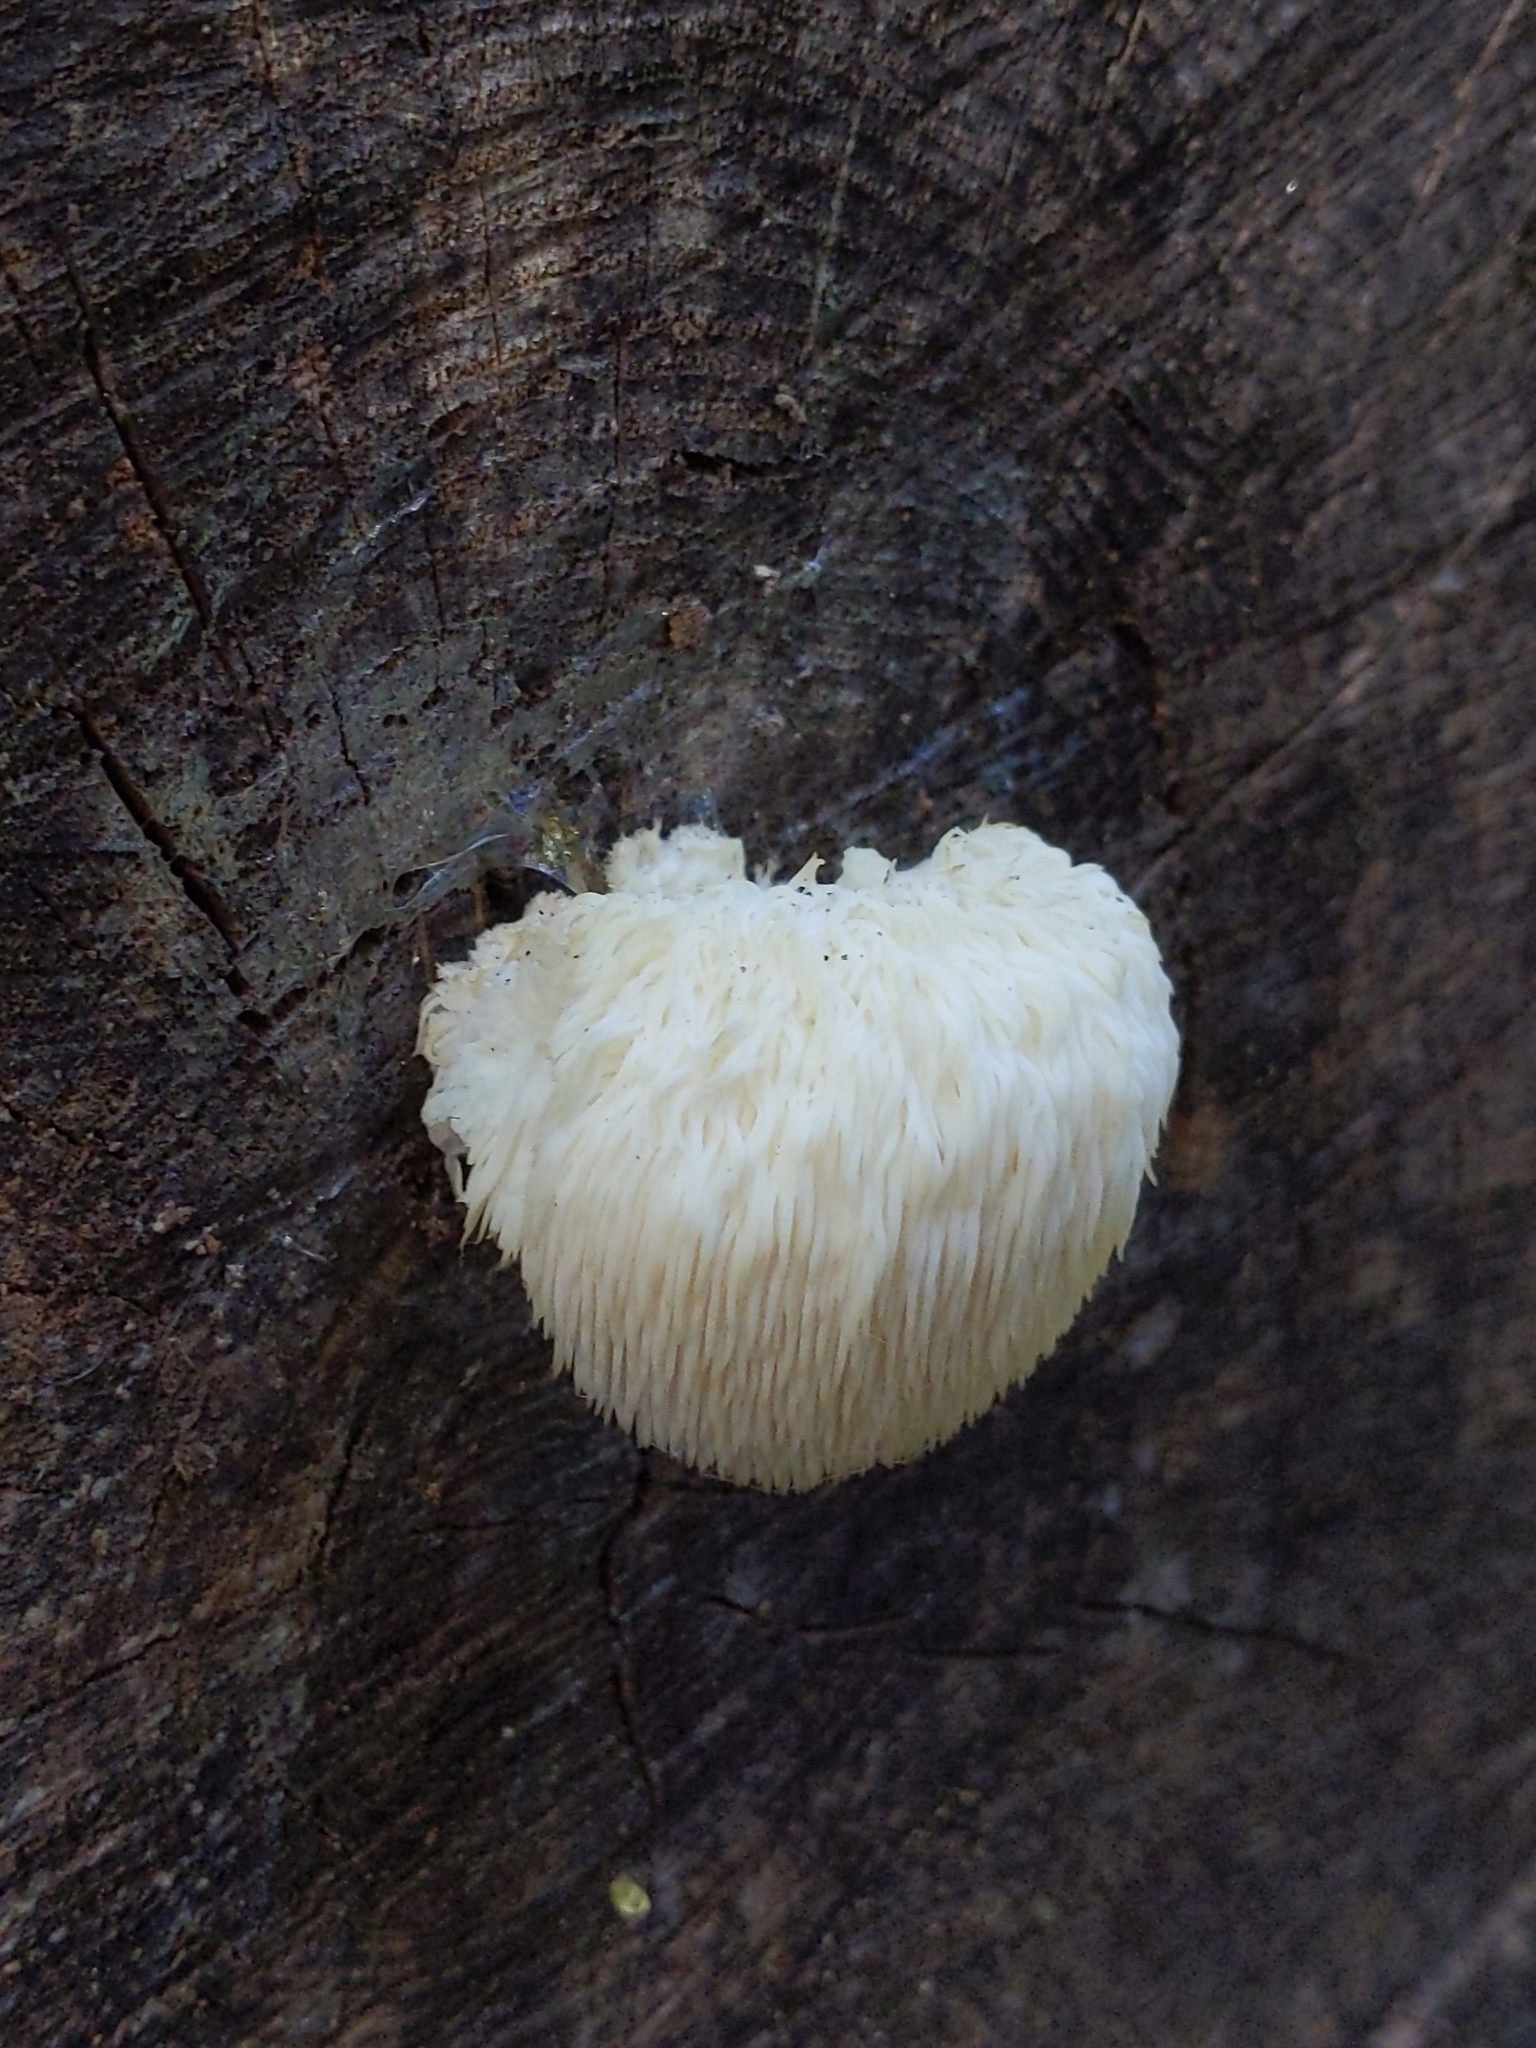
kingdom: Fungi
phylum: Basidiomycota
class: Agaricomycetes
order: Russulales
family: Hericiaceae
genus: Hericium
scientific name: Hericium erinaceus
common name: Bearded tooth
